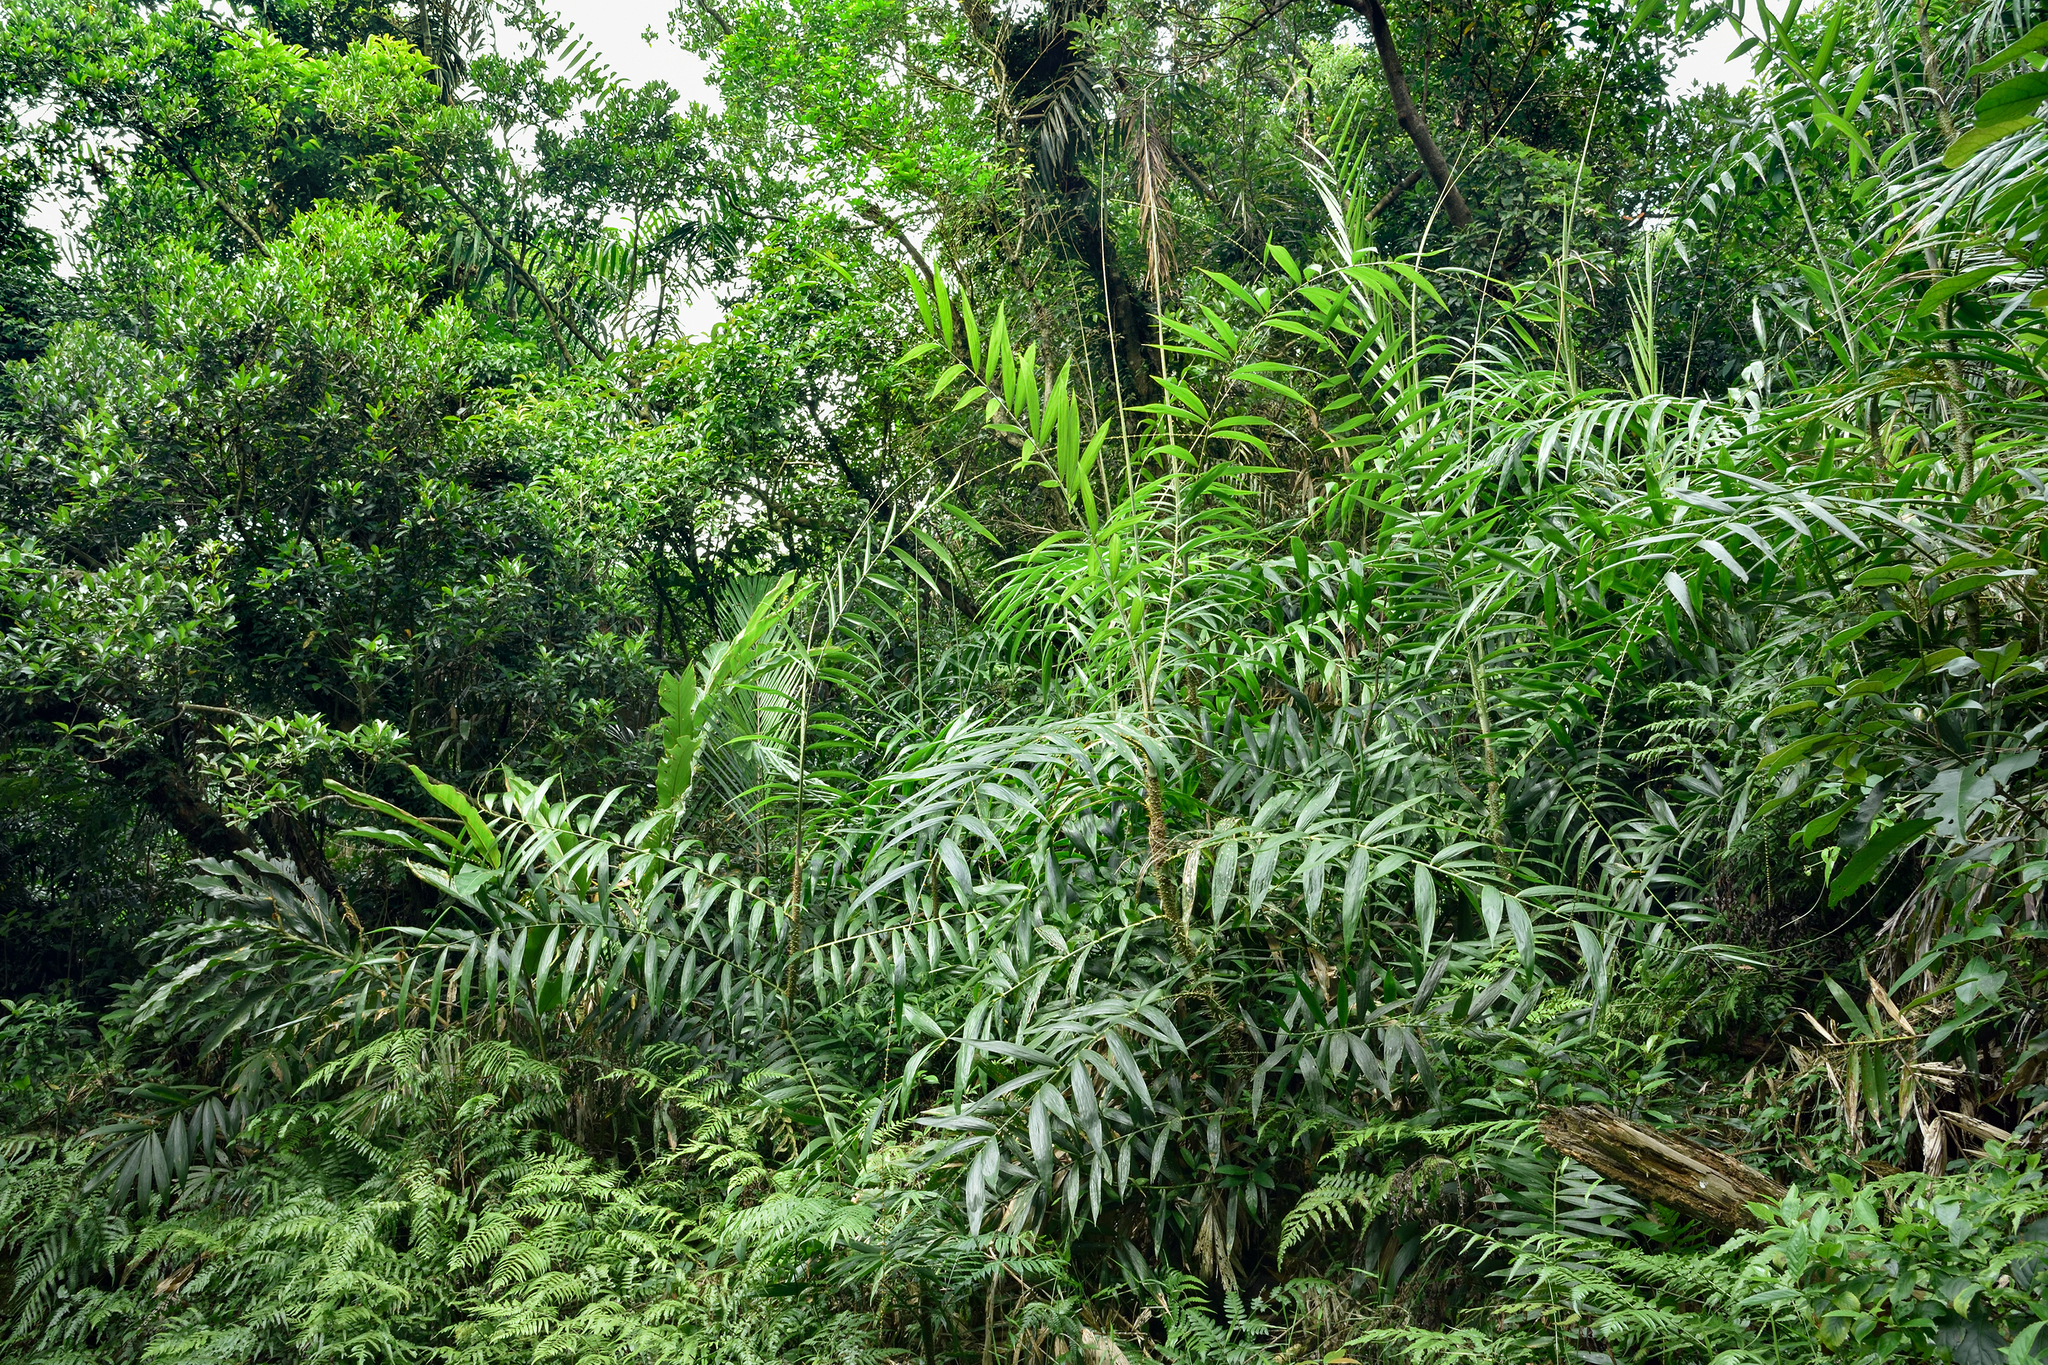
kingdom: Plantae
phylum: Tracheophyta
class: Liliopsida
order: Arecales
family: Arecaceae
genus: Calamus
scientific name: Calamus formosanus
